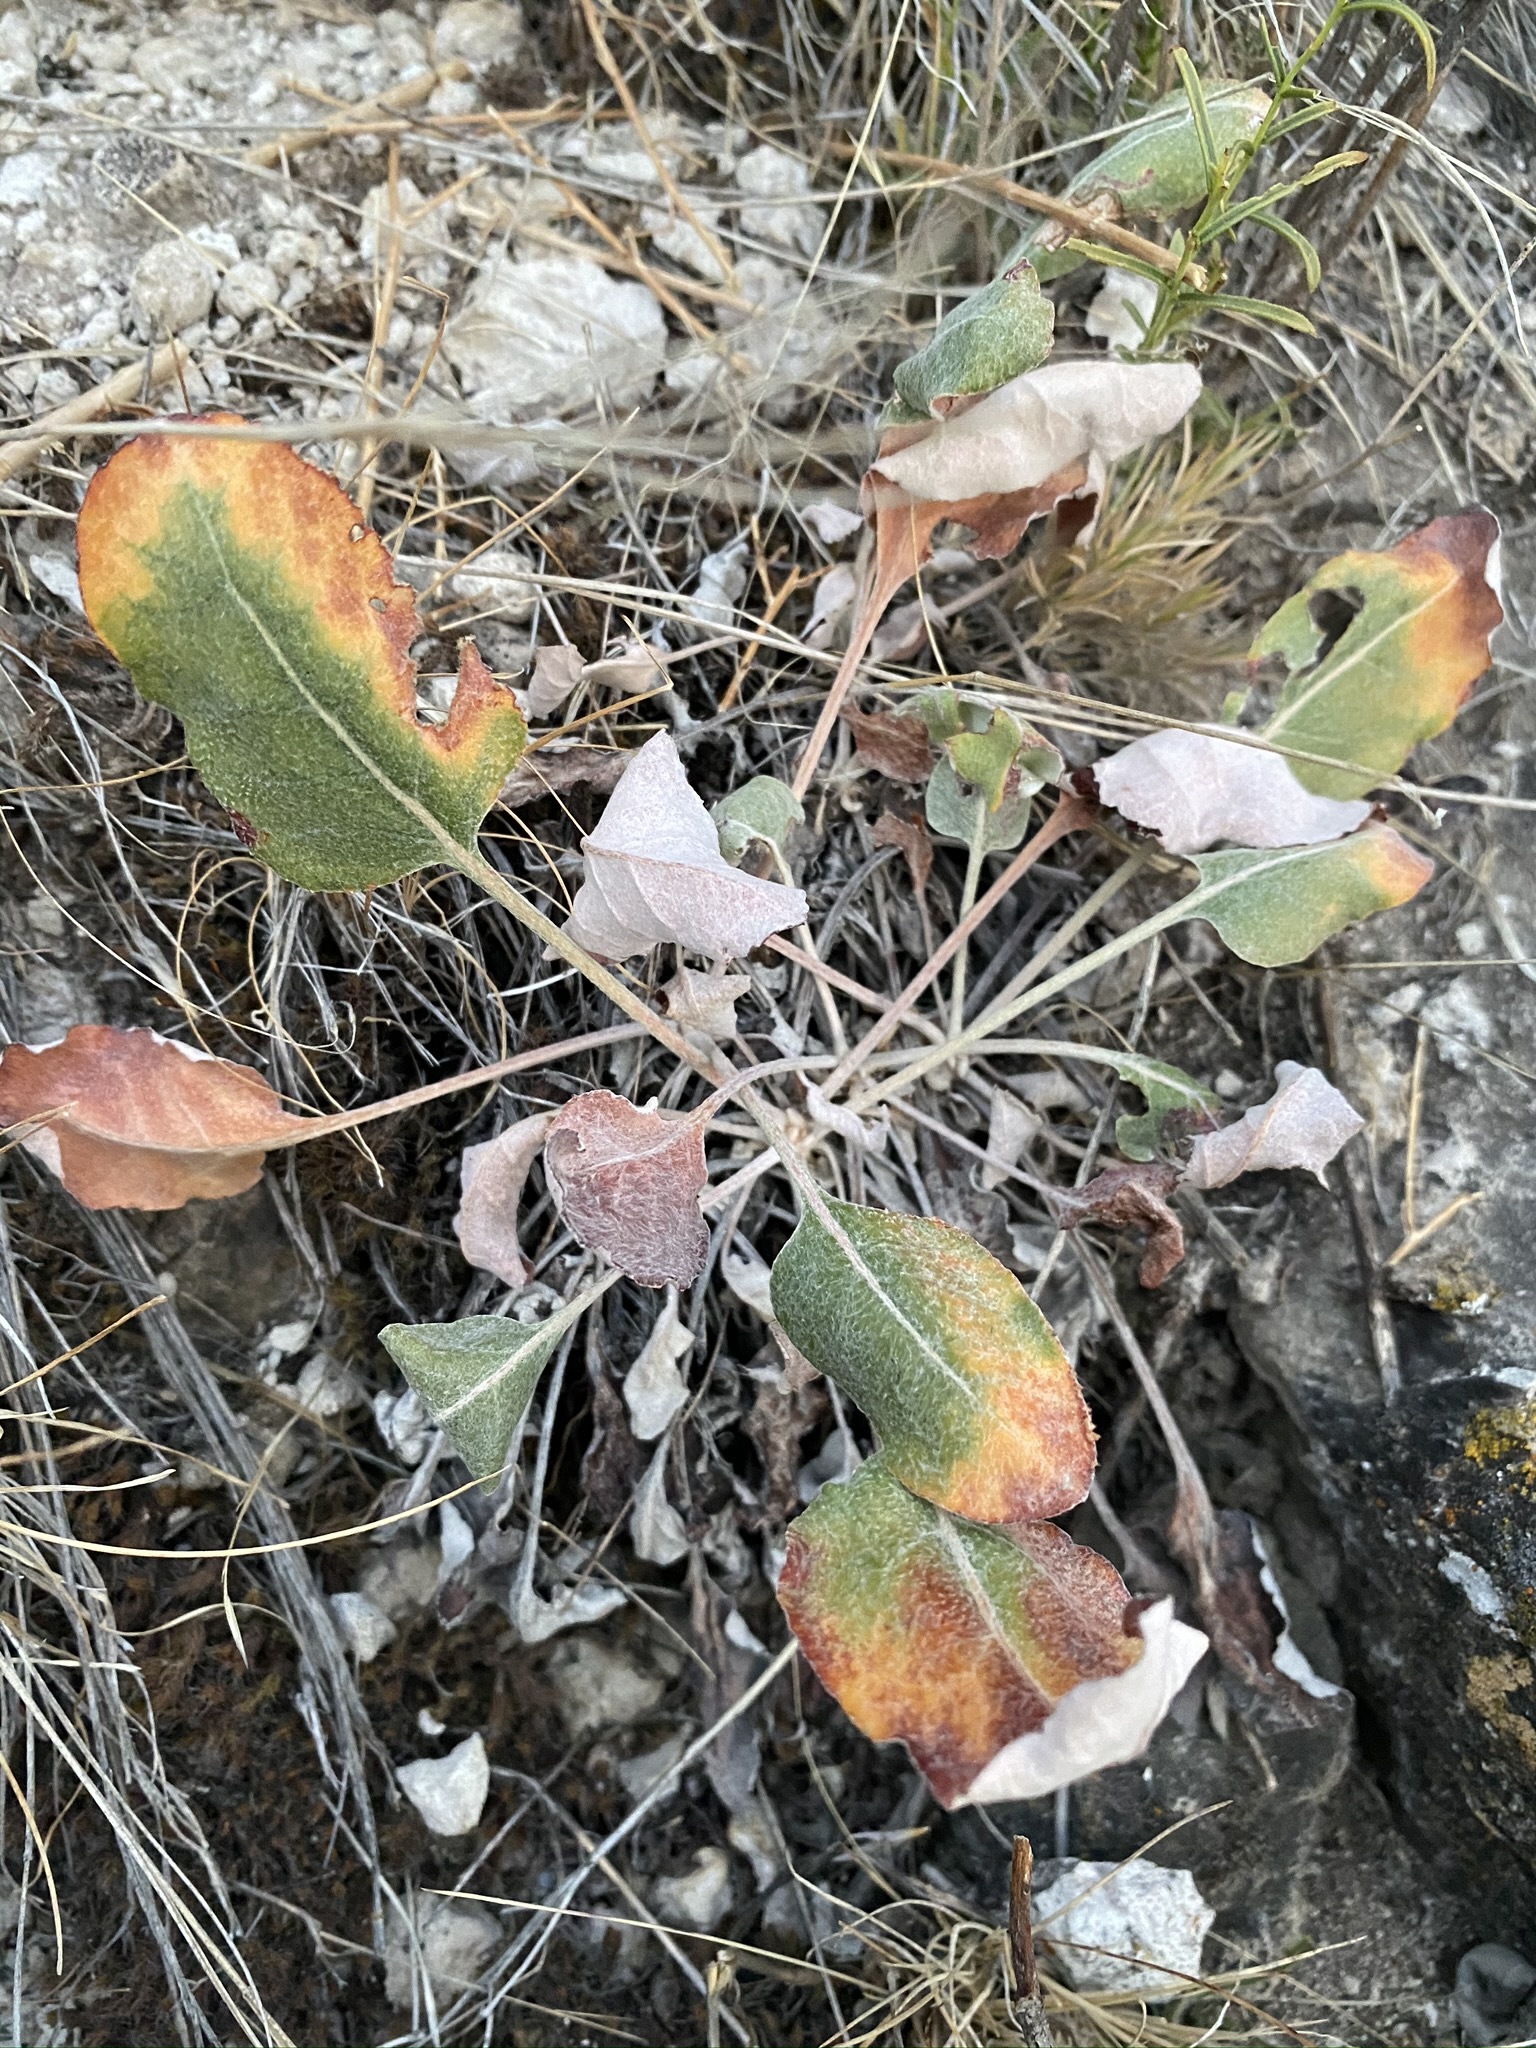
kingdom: Plantae
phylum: Tracheophyta
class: Magnoliopsida
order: Caryophyllales
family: Polygonaceae
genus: Eriogonum
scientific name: Eriogonum racemosum
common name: Redroot wild buckwheat
